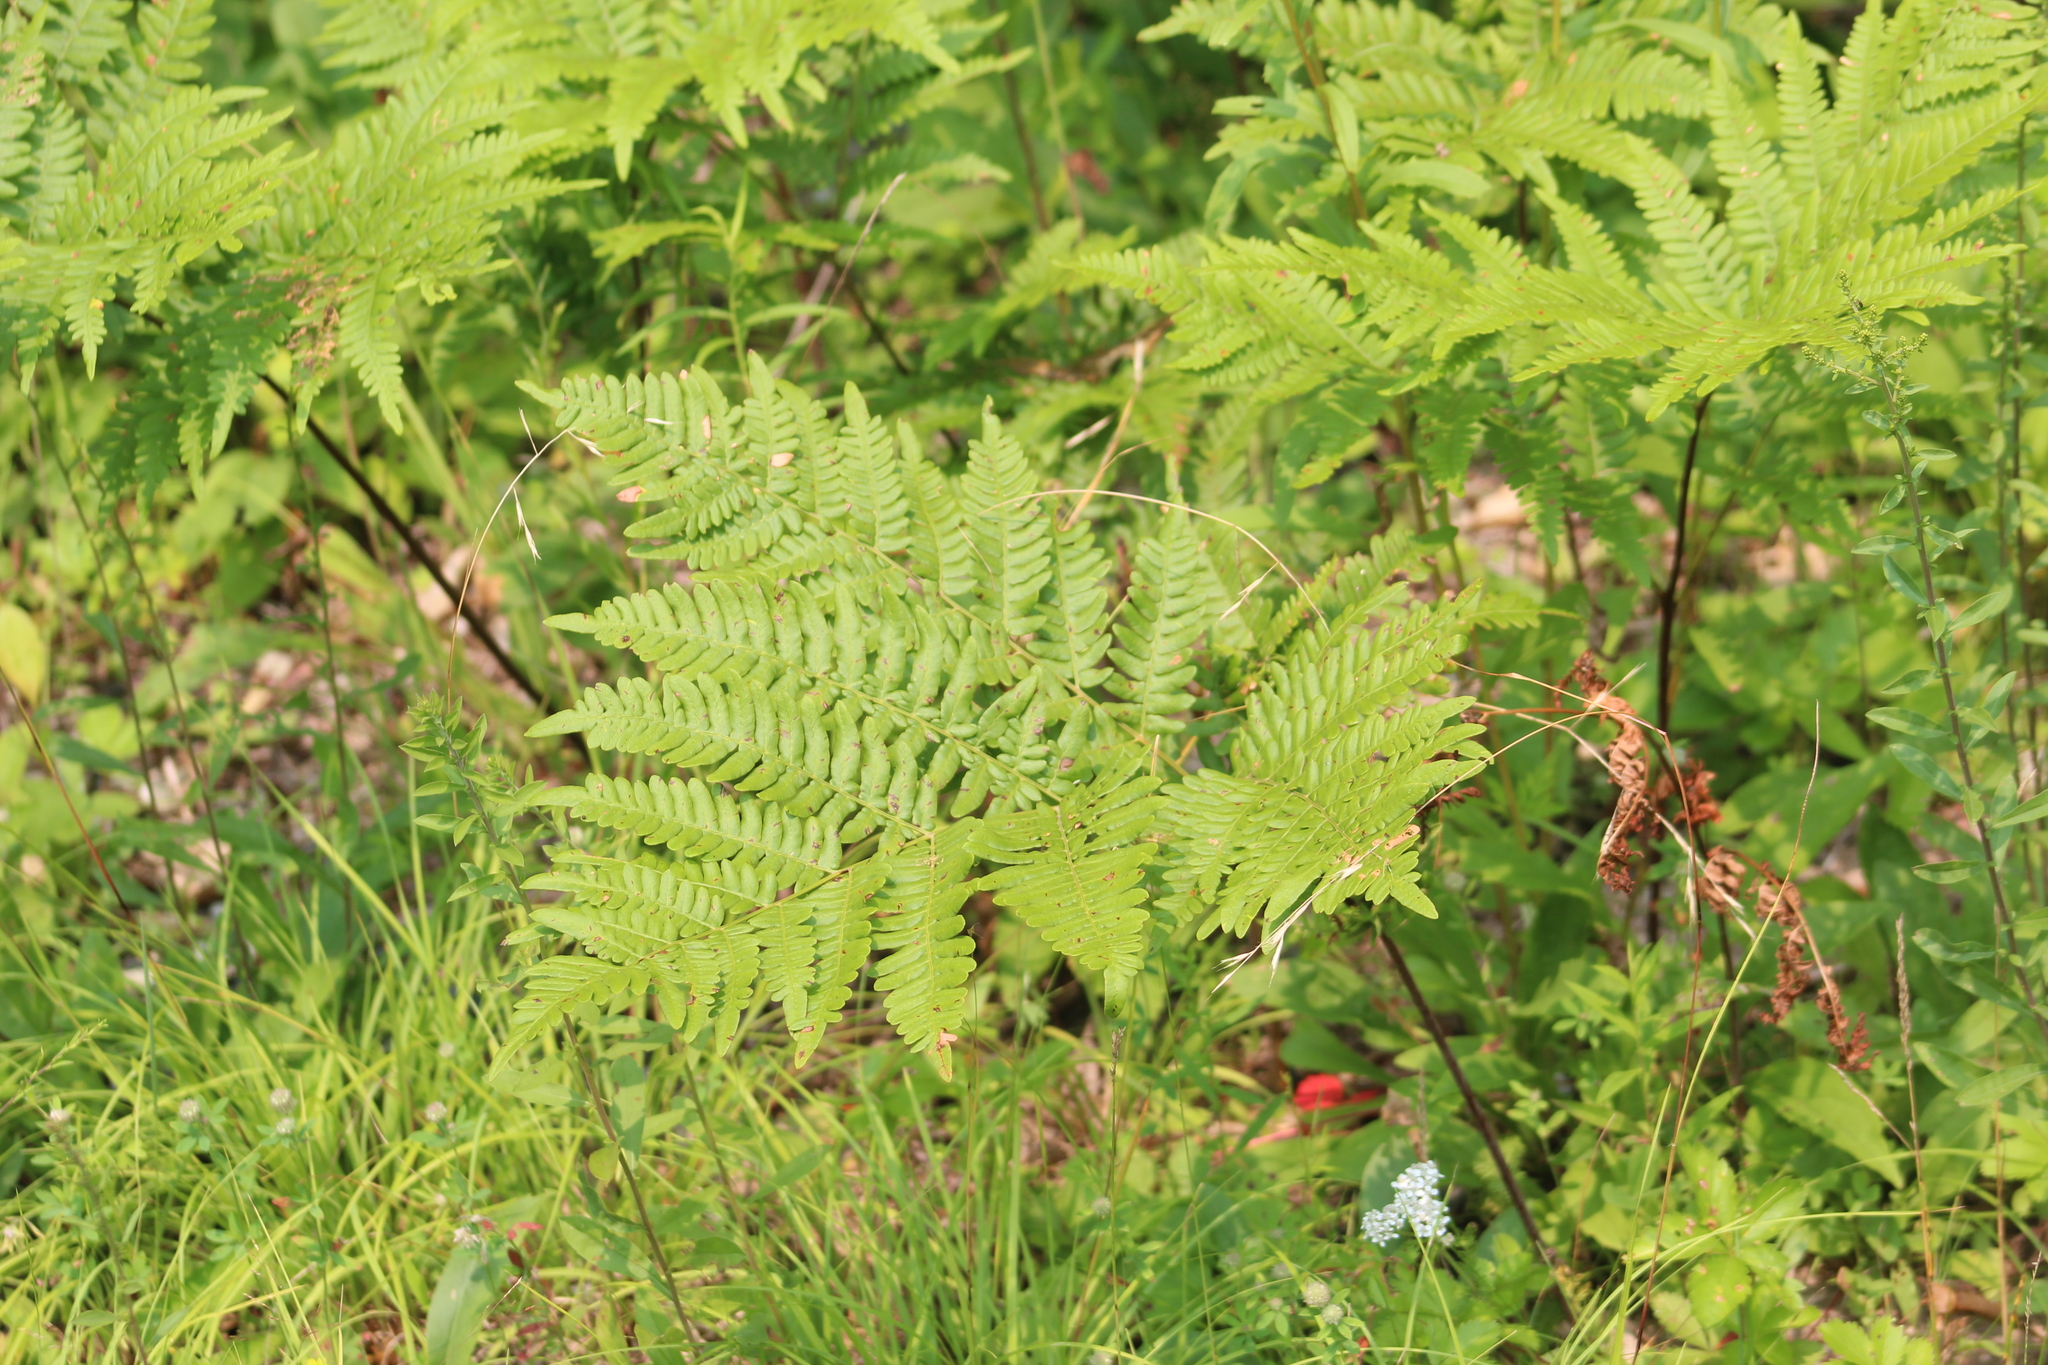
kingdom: Plantae
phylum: Tracheophyta
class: Polypodiopsida
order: Polypodiales
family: Dennstaedtiaceae
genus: Pteridium
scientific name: Pteridium aquilinum
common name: Bracken
